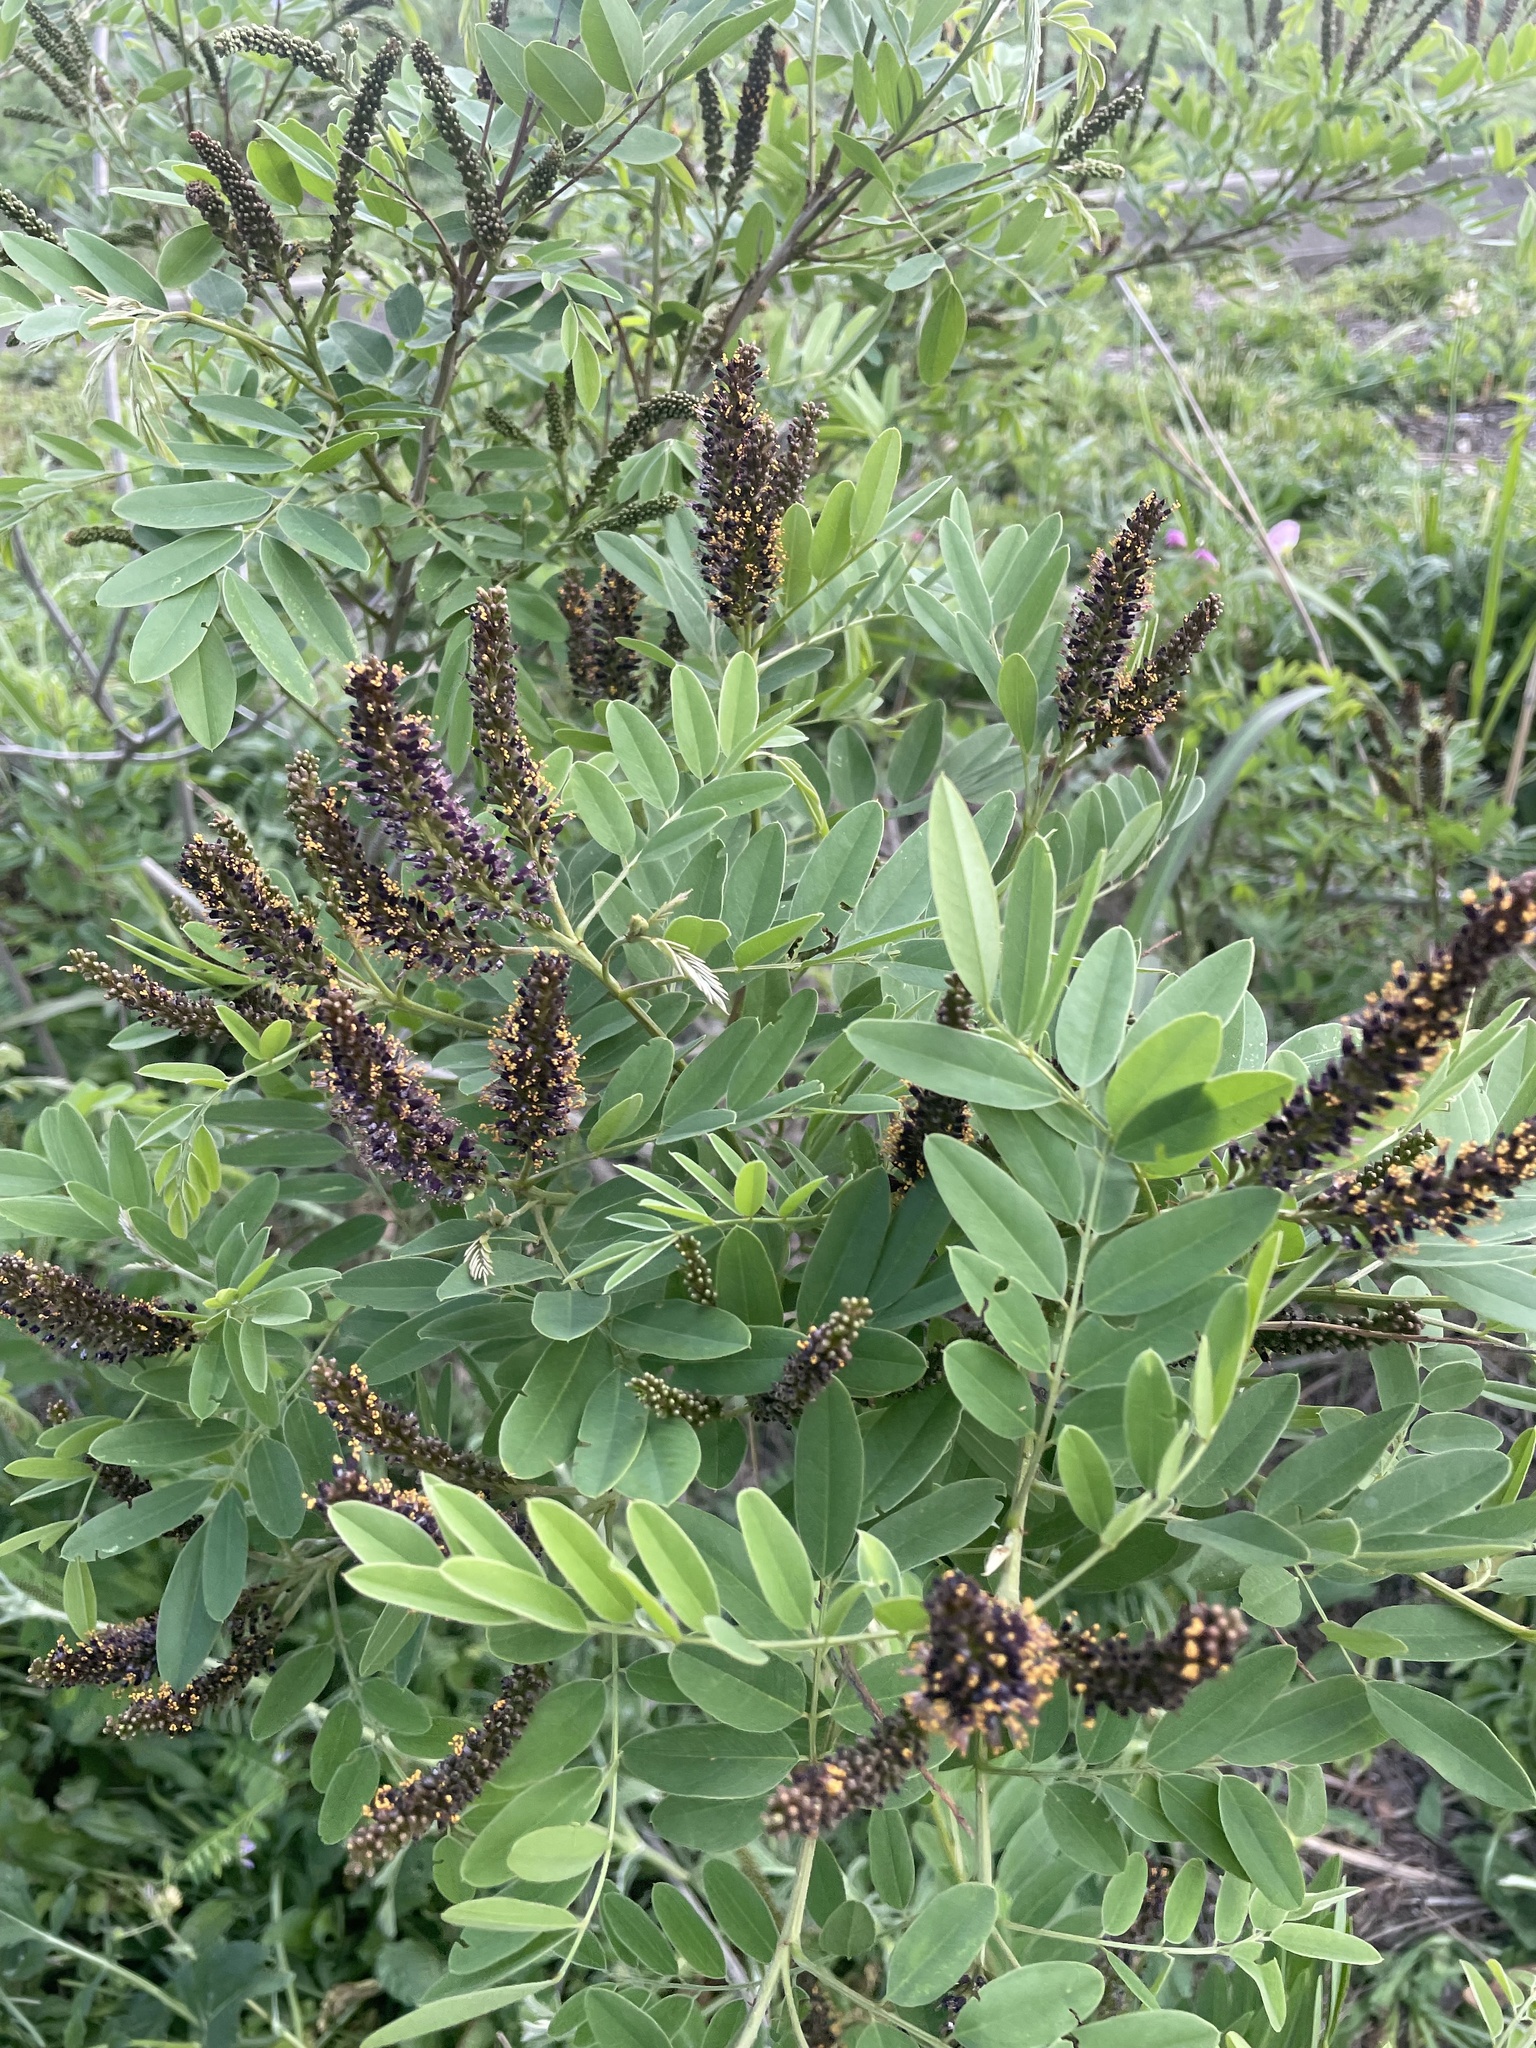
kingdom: Plantae
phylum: Tracheophyta
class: Magnoliopsida
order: Fabales
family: Fabaceae
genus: Amorpha
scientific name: Amorpha fruticosa
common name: False indigo
